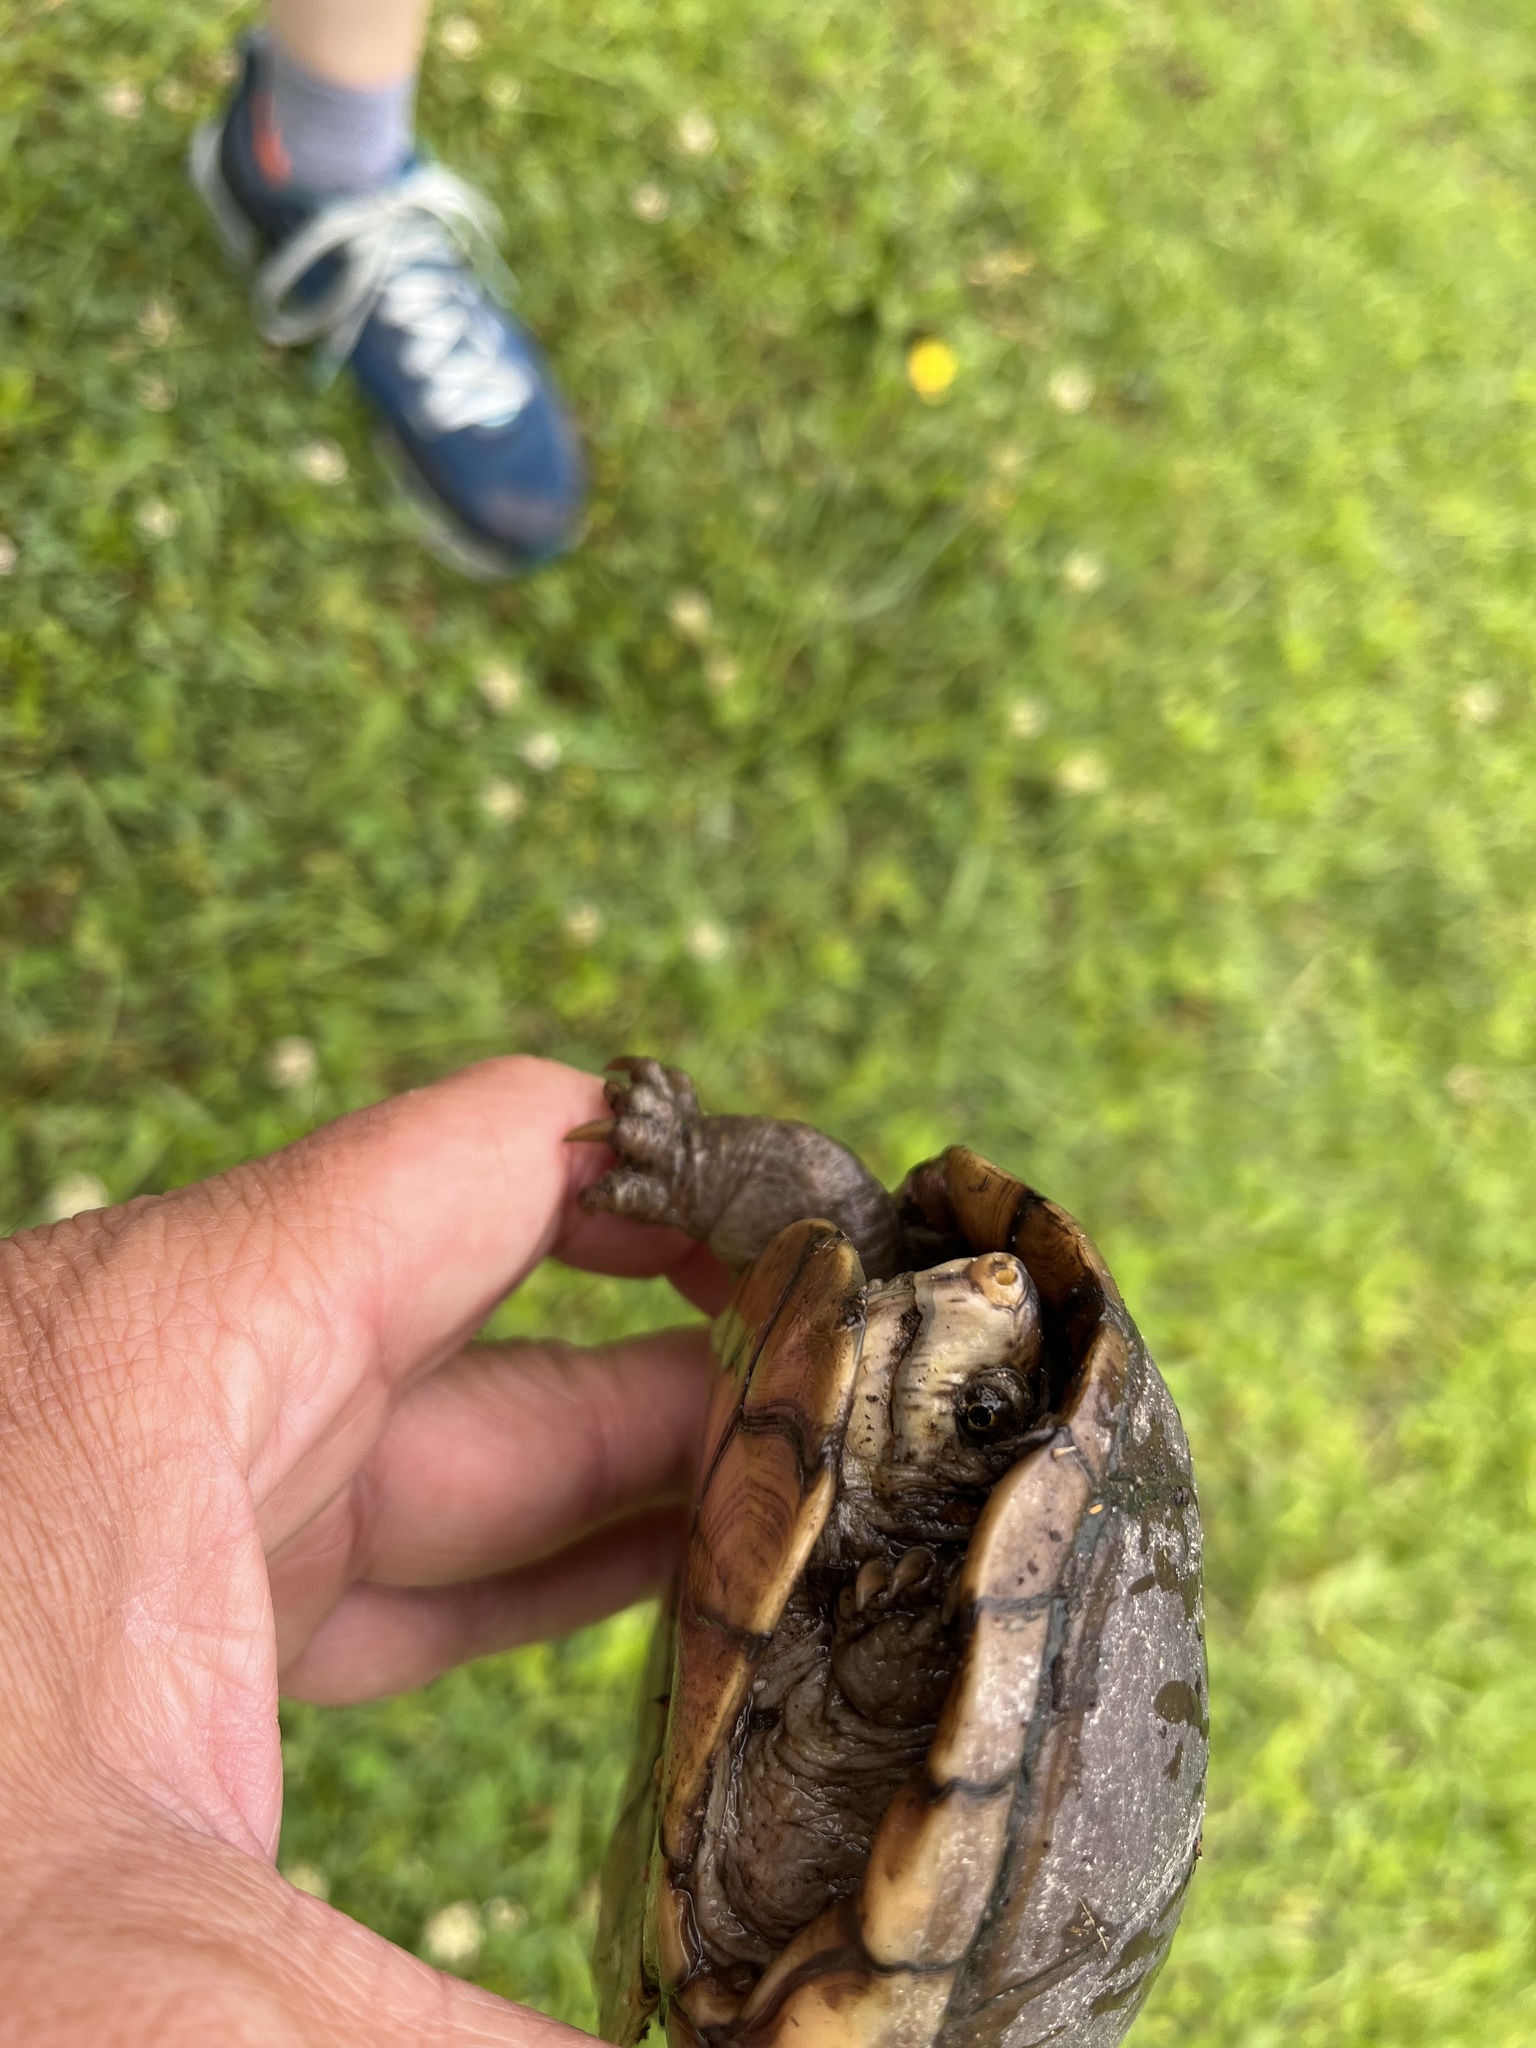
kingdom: Animalia
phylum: Chordata
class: Testudines
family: Kinosternidae
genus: Kinosternon
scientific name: Kinosternon subrubrum
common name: Eastern mud turtle
